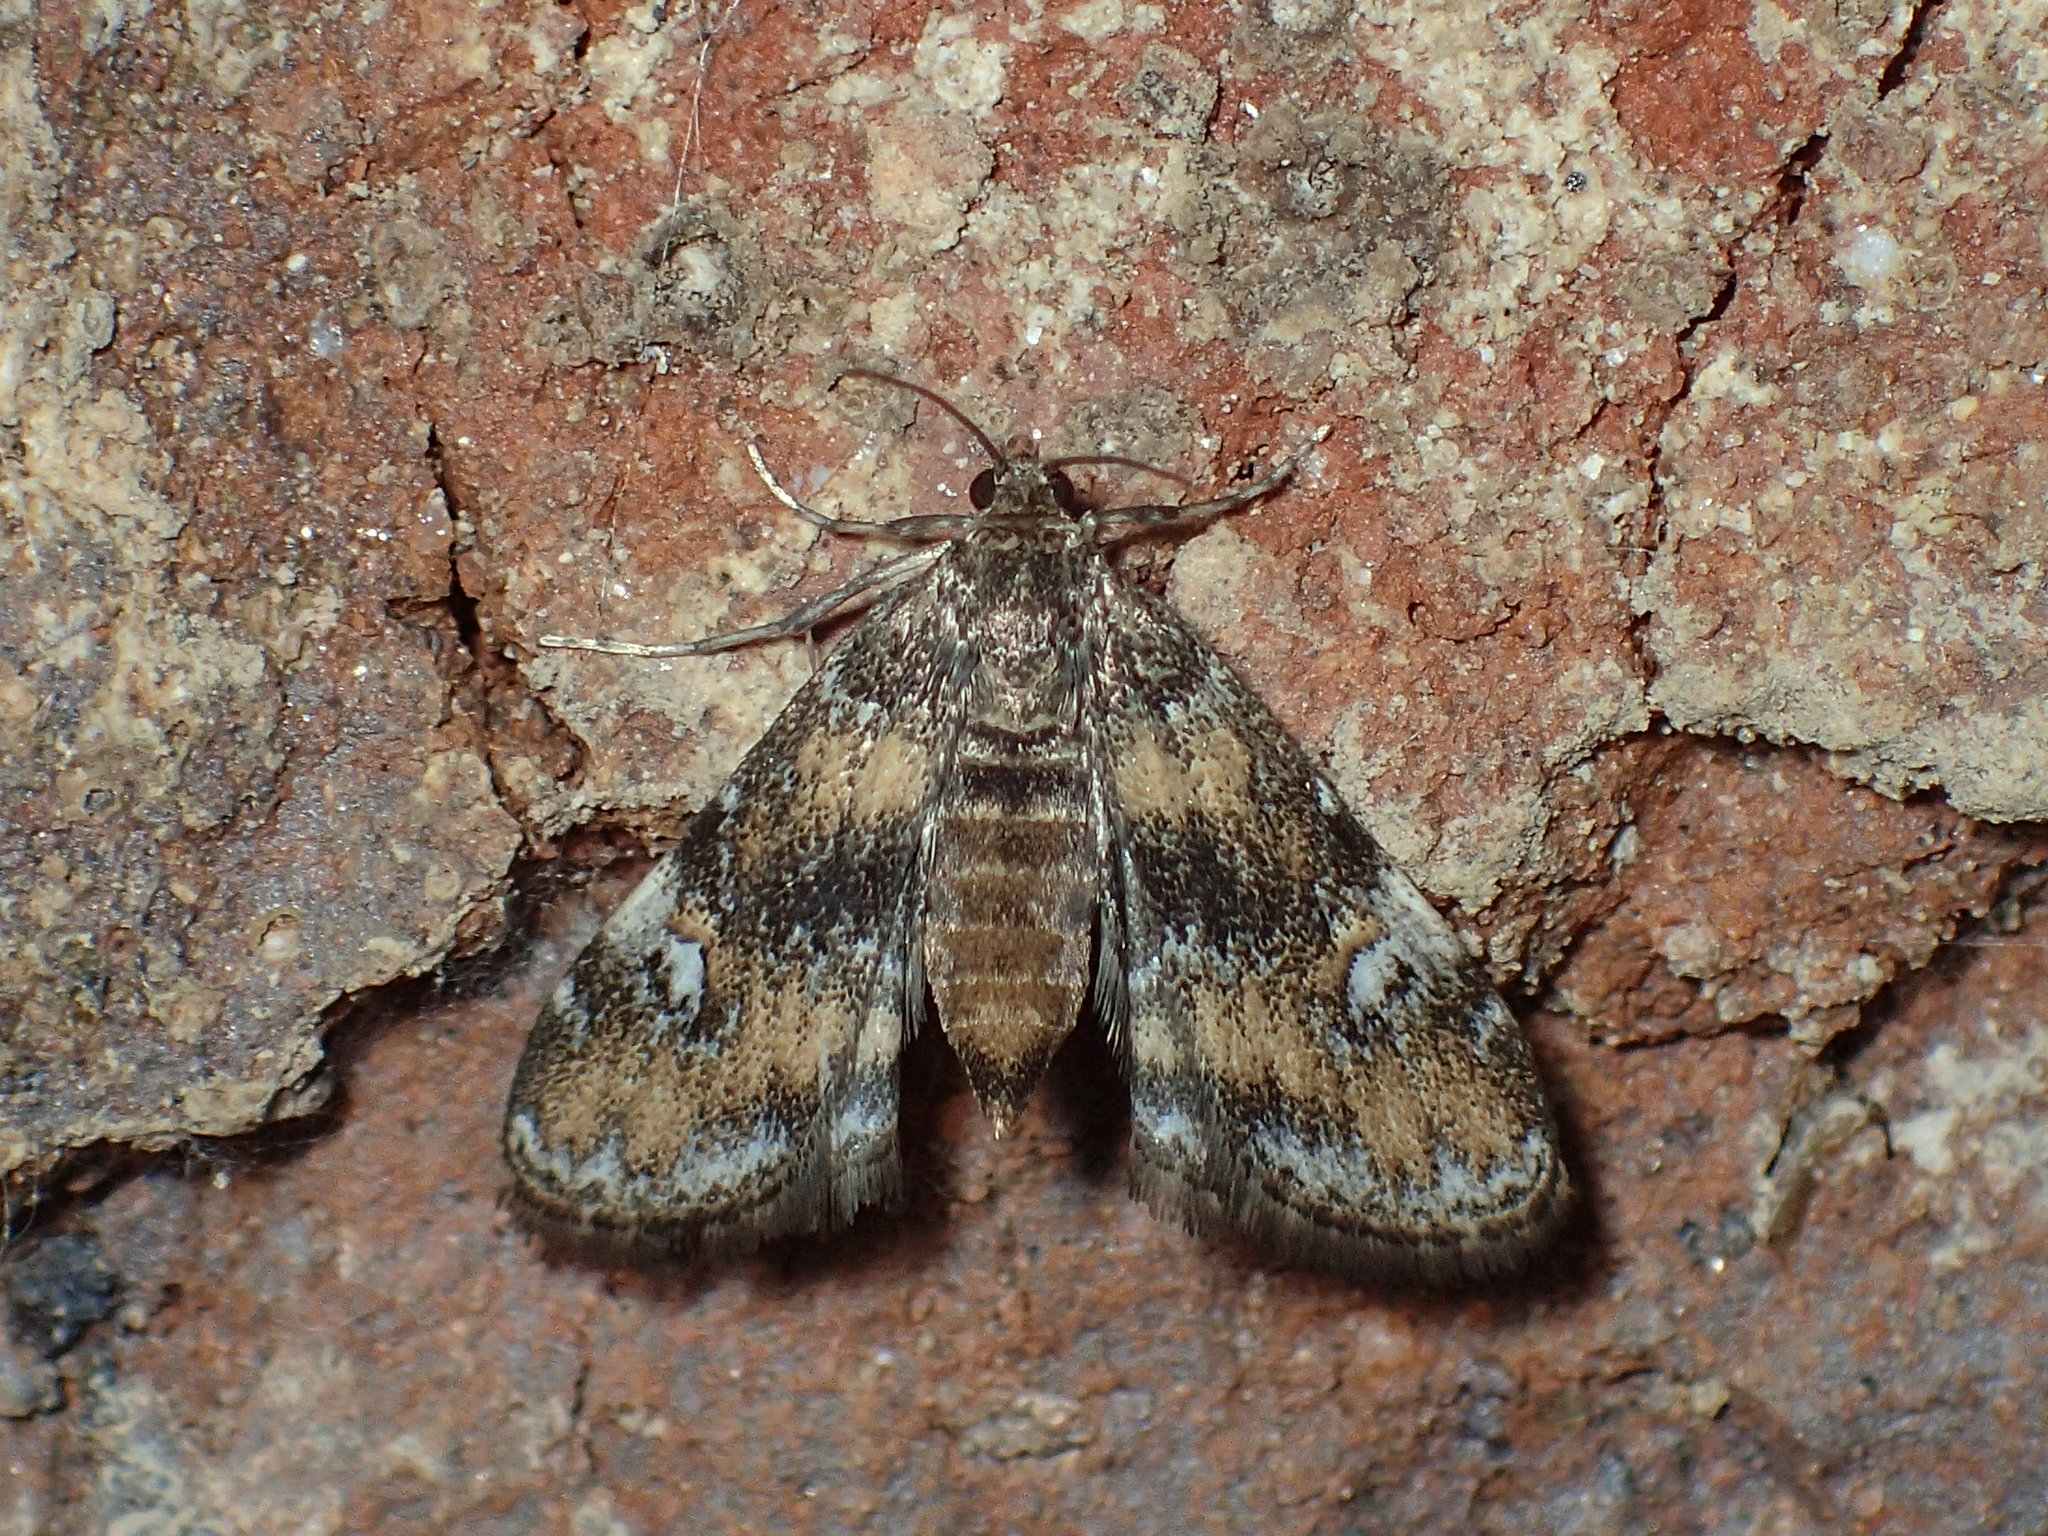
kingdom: Animalia
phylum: Arthropoda
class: Insecta
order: Lepidoptera
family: Crambidae
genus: Elophila
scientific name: Elophila obliteralis
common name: Waterlily leafcutter moth
